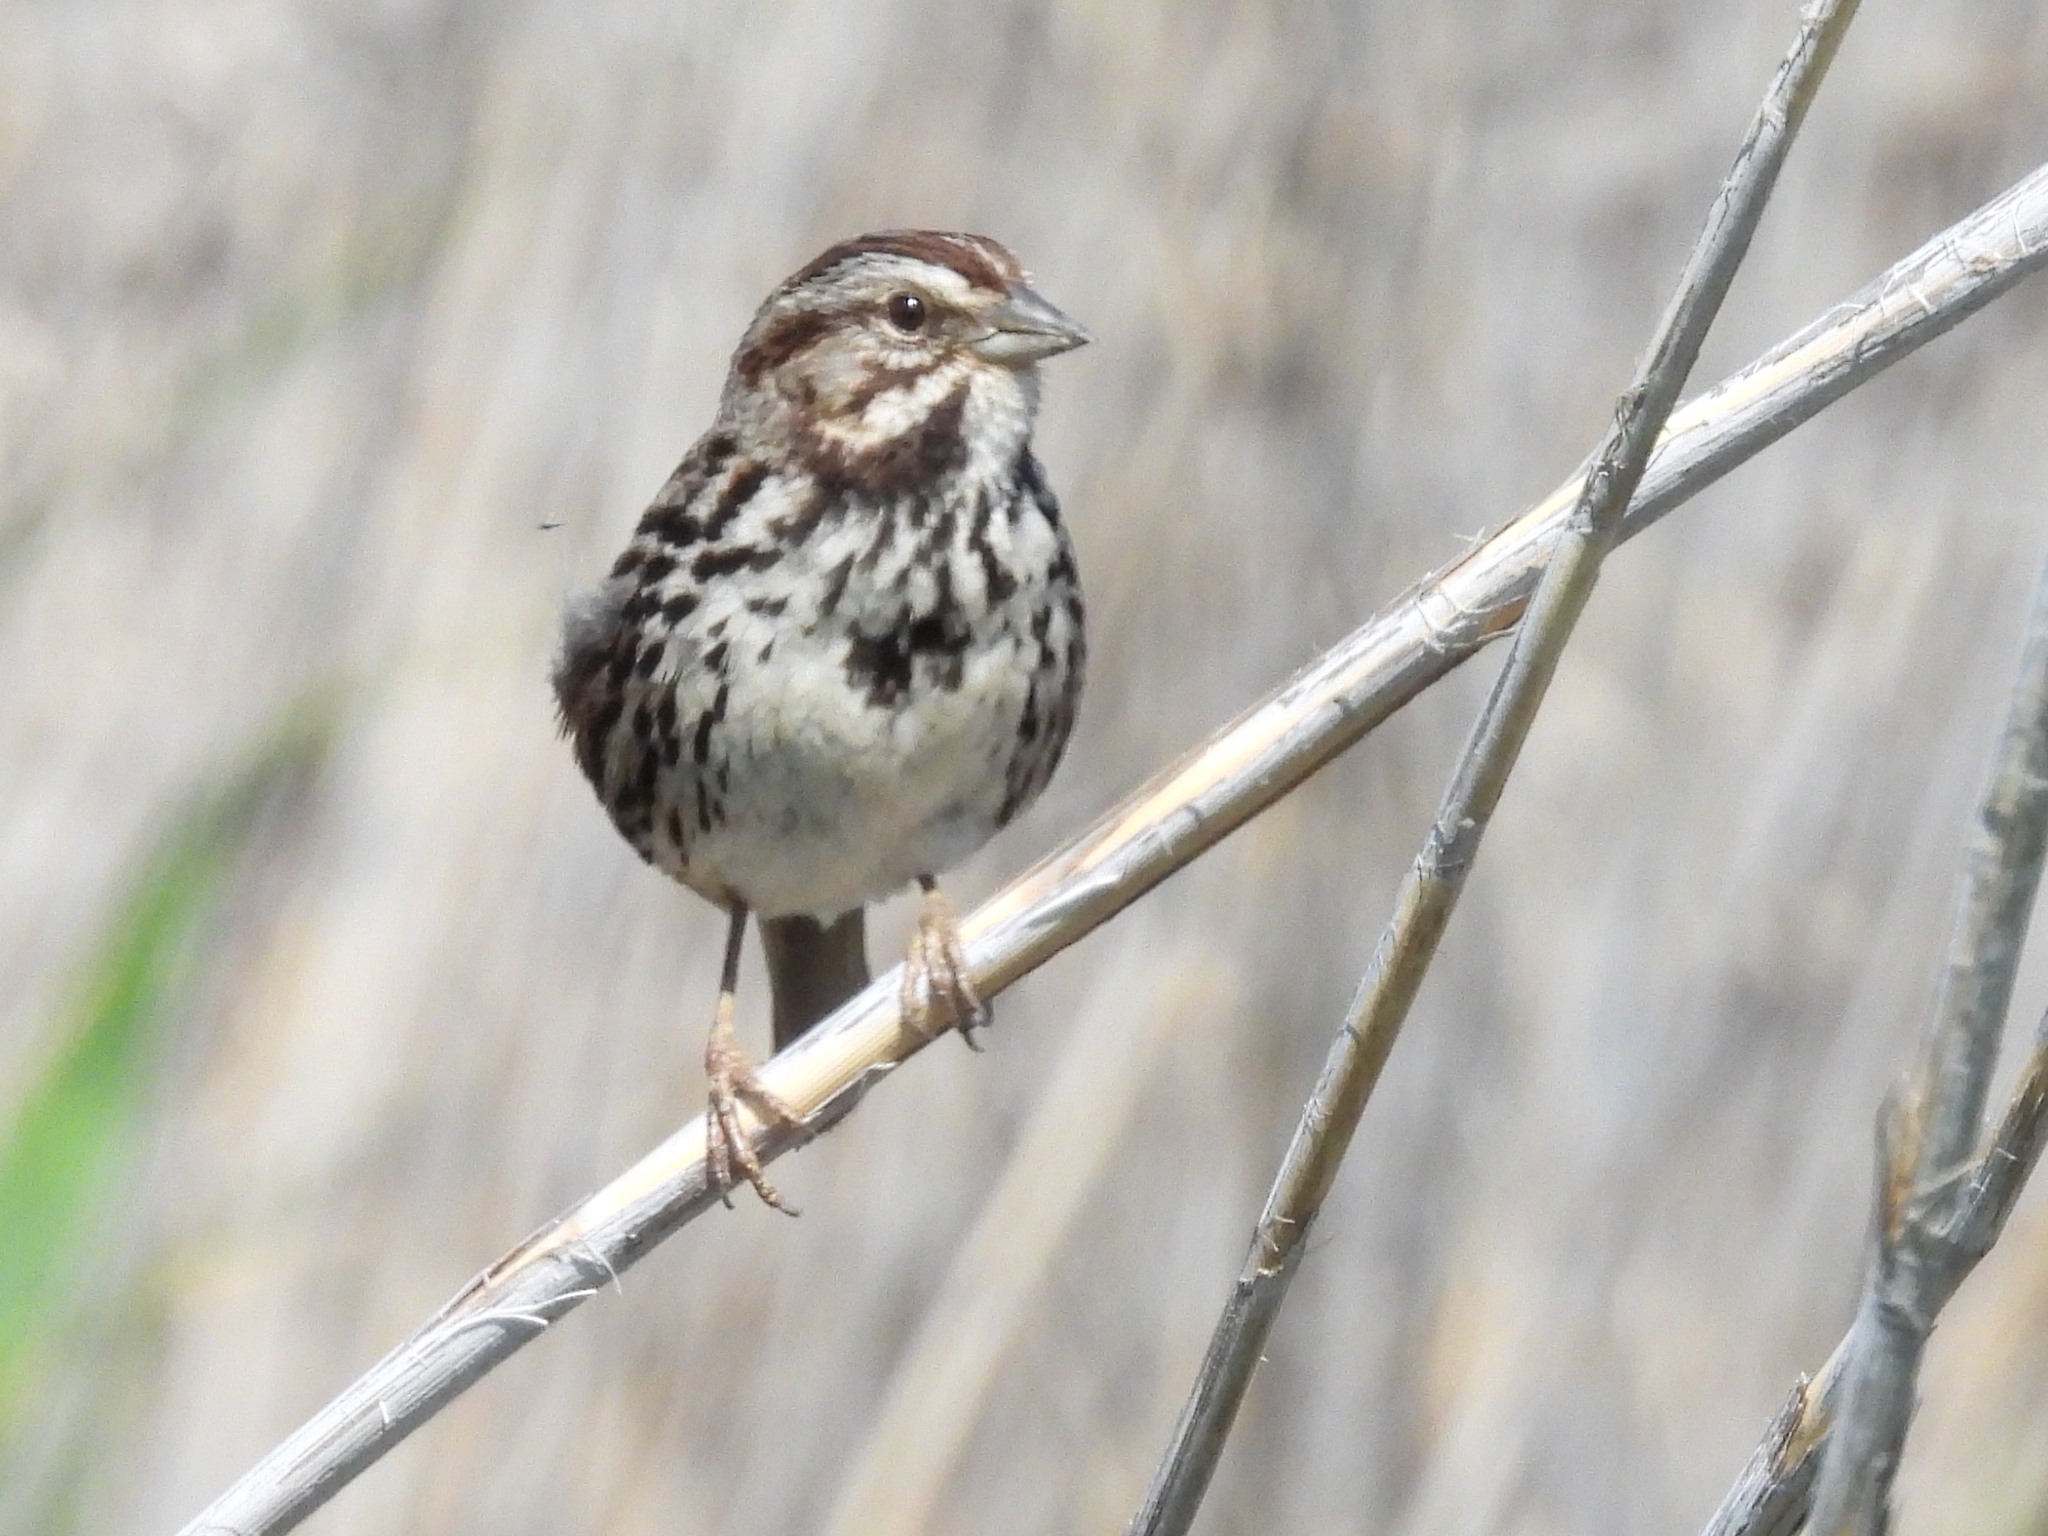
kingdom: Animalia
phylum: Chordata
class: Aves
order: Passeriformes
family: Passerellidae
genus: Melospiza
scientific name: Melospiza melodia
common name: Song sparrow
